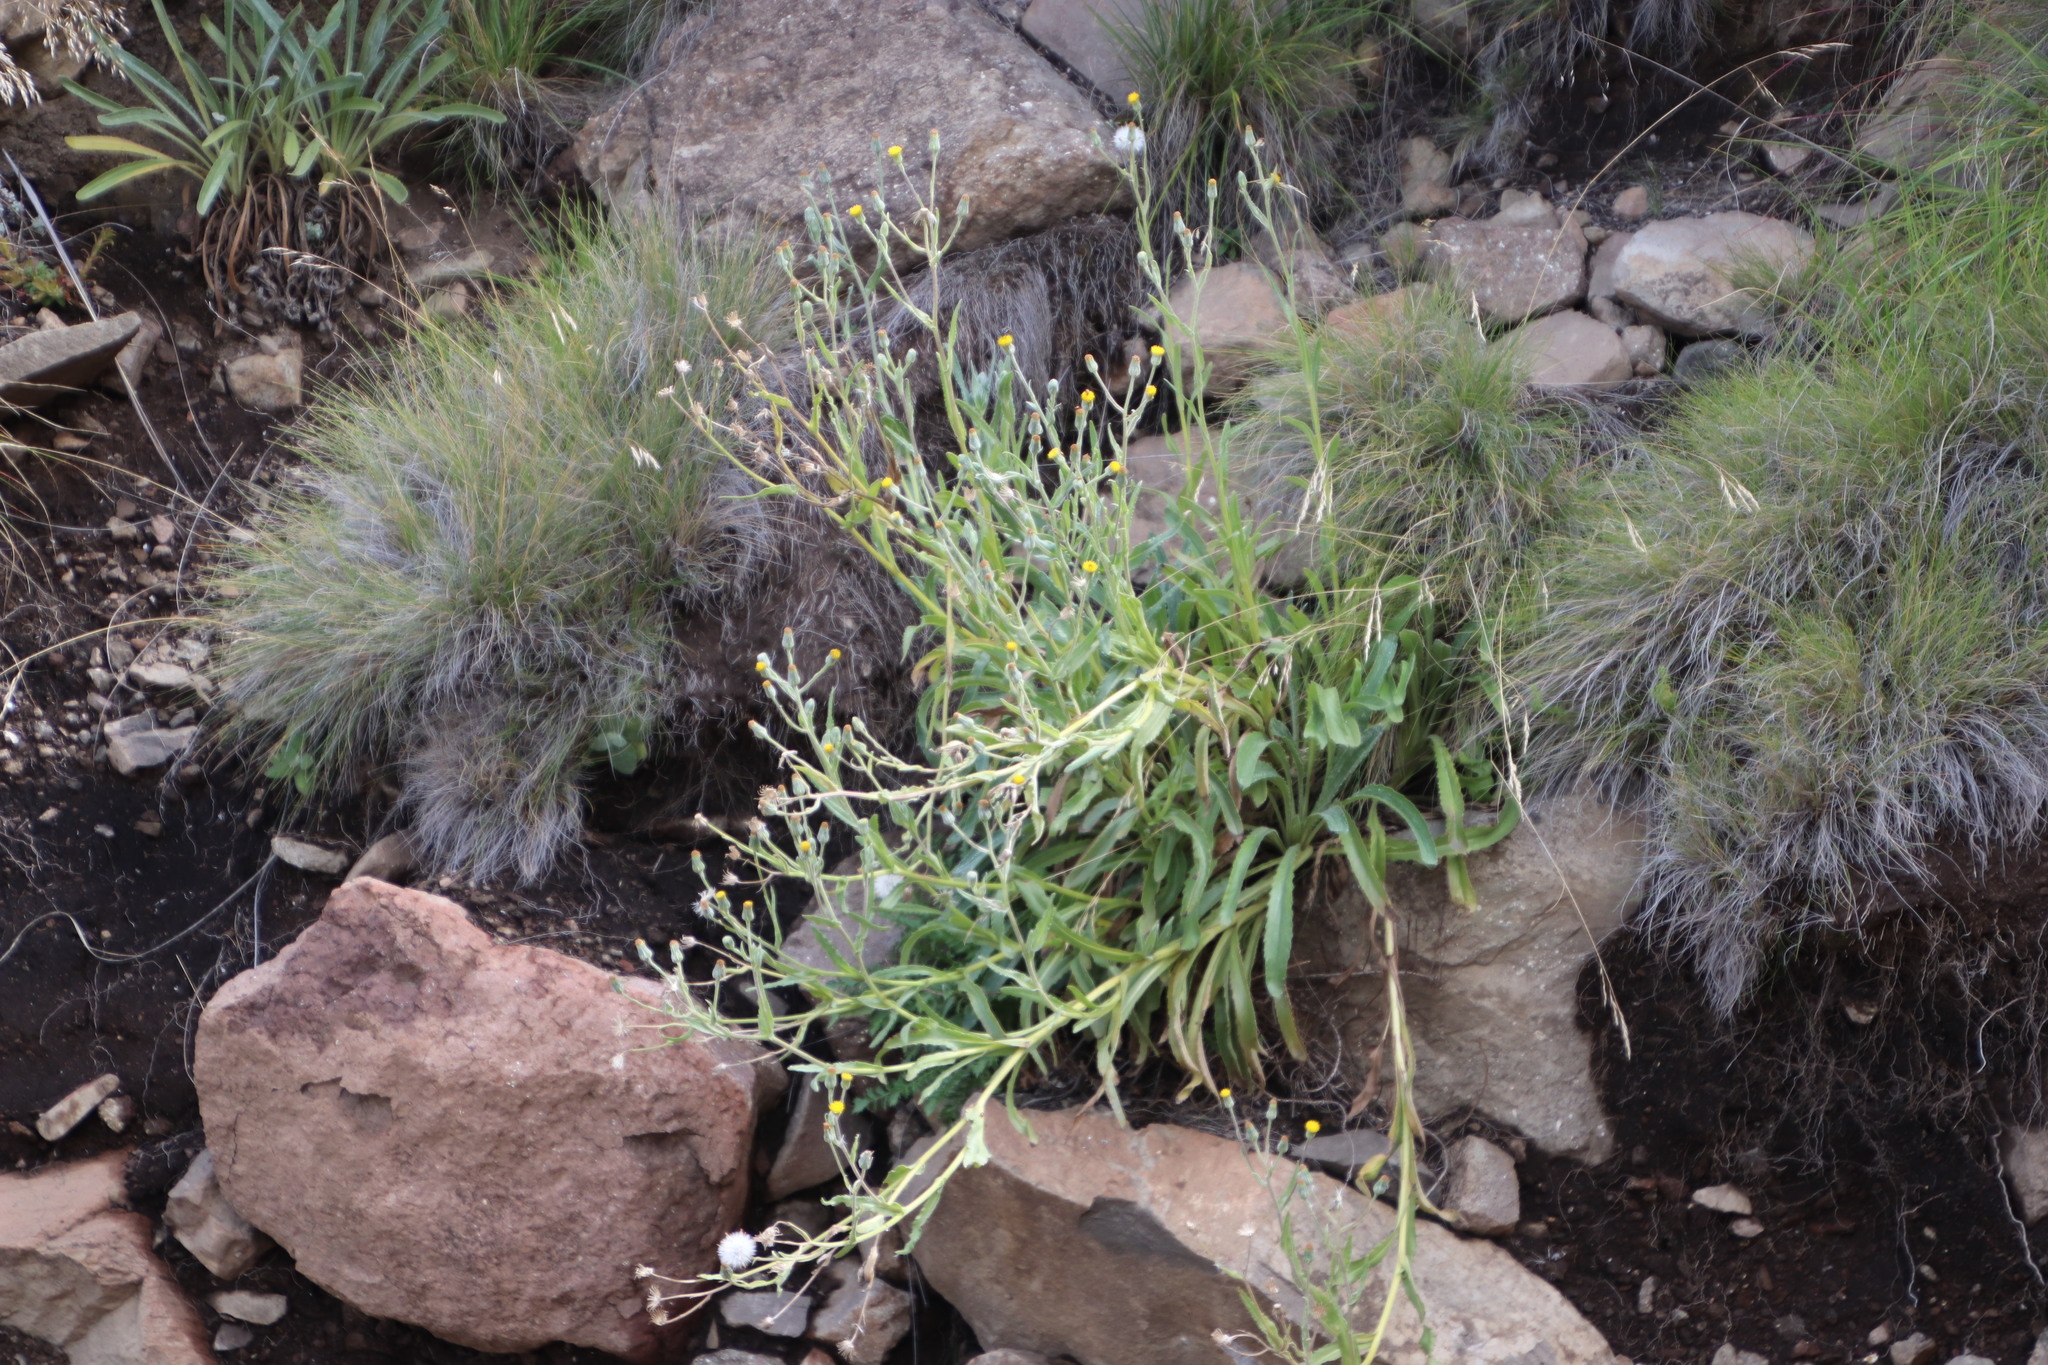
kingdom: Plantae
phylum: Tracheophyta
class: Magnoliopsida
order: Asterales
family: Asteraceae
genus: Senecio
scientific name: Senecio asperulus
